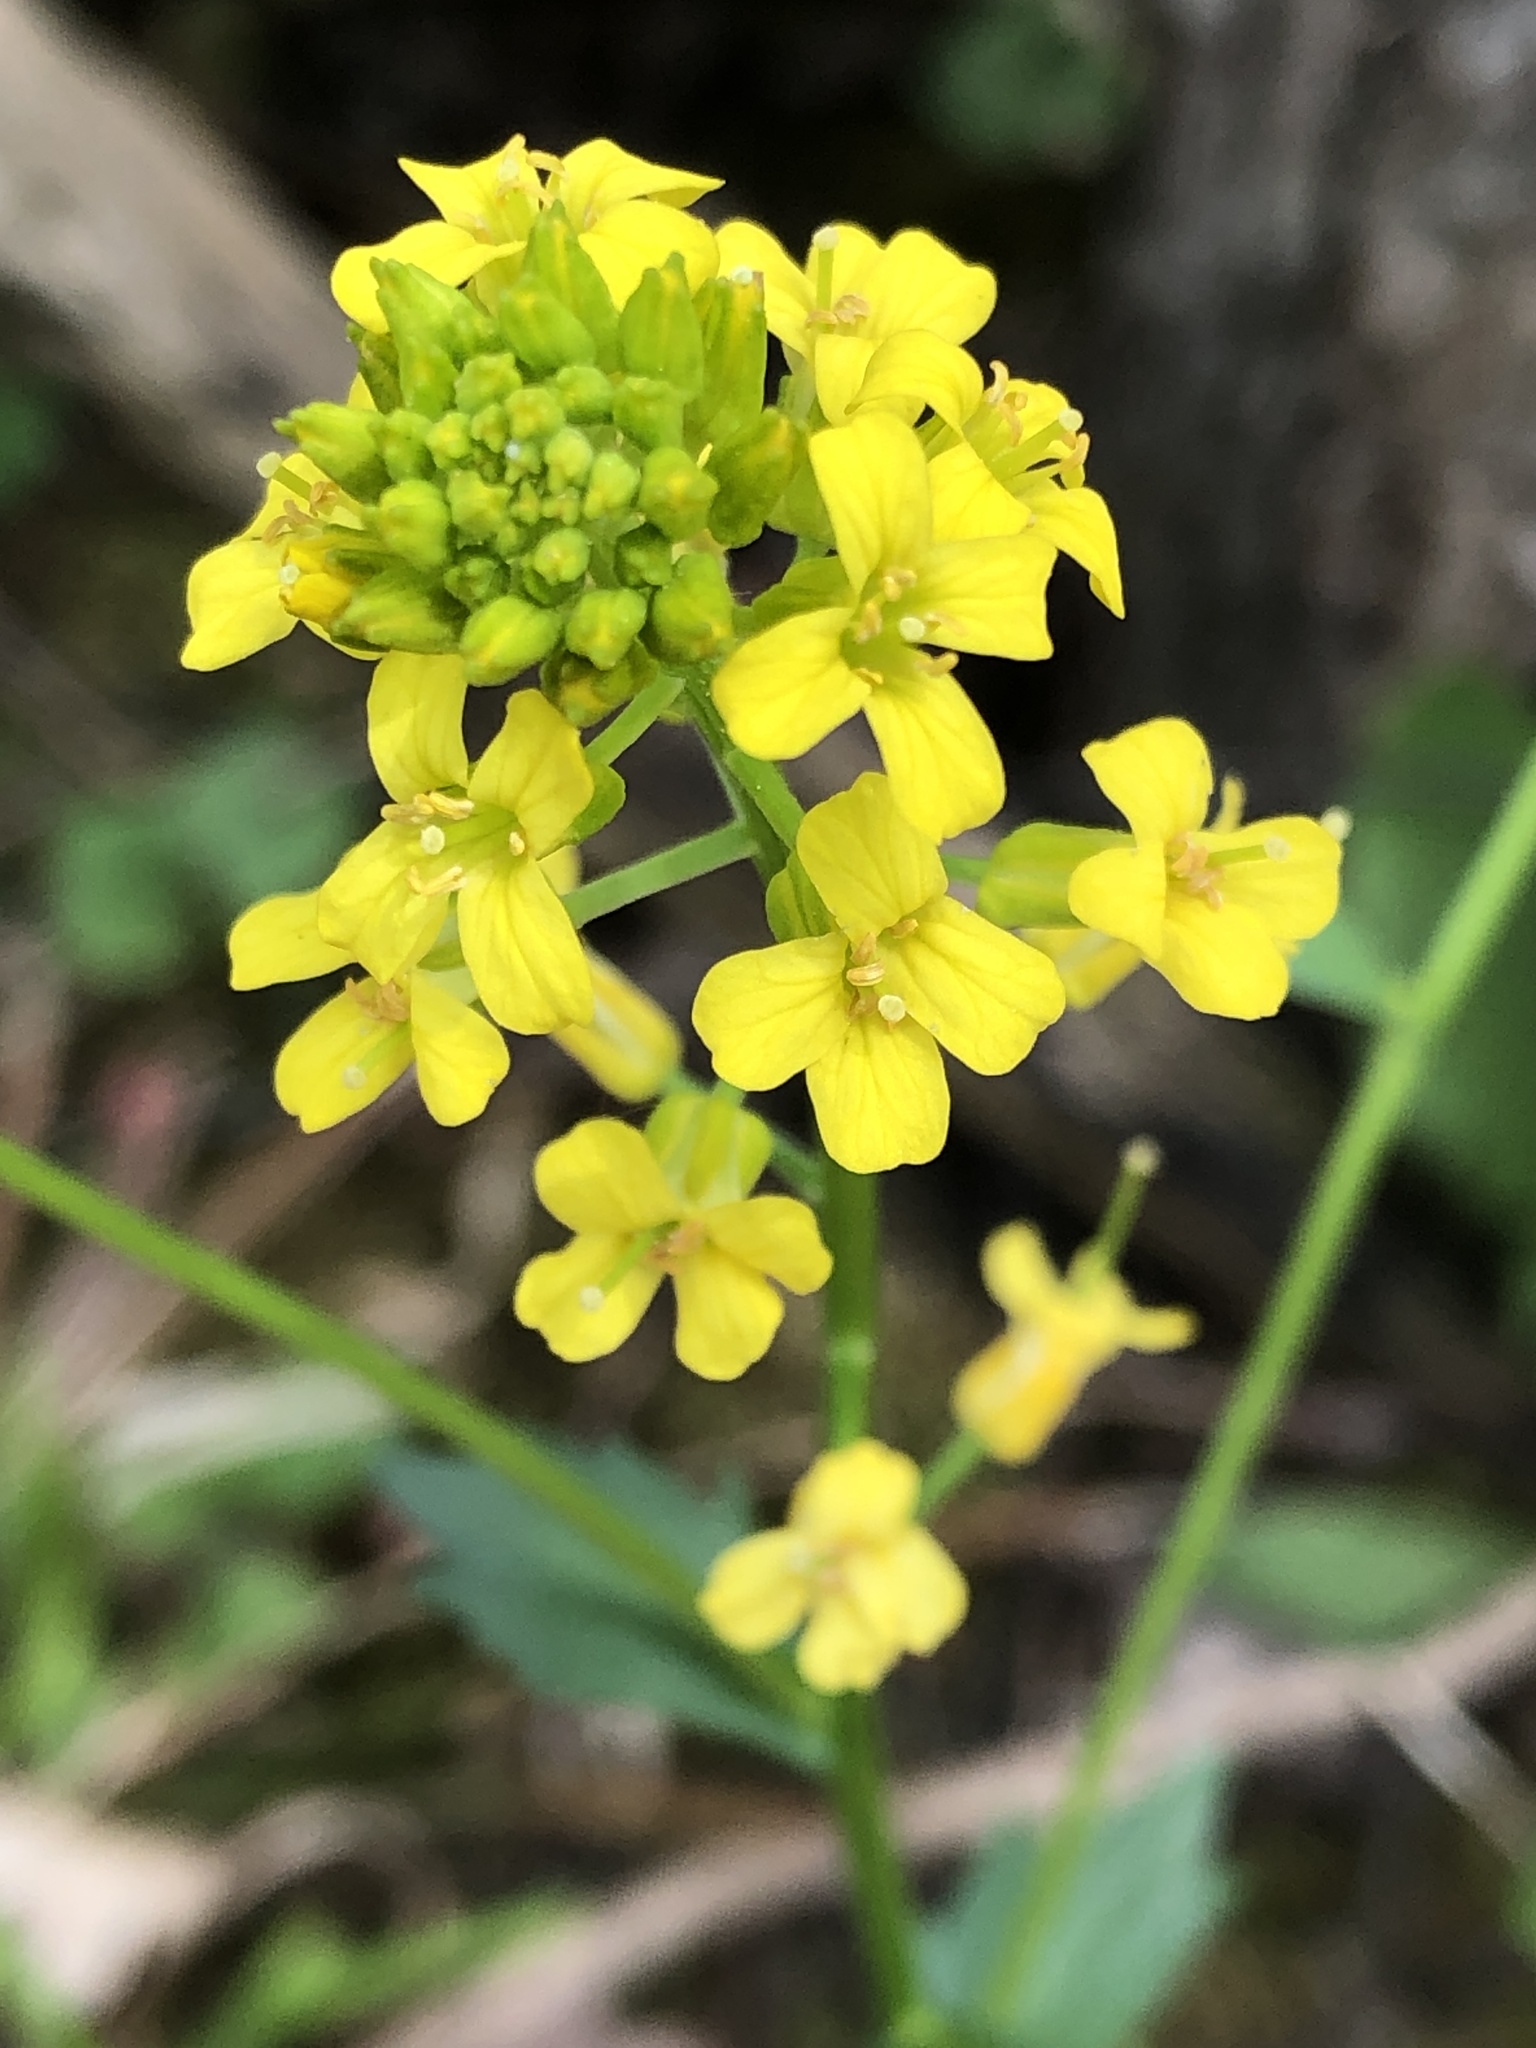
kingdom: Plantae
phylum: Tracheophyta
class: Magnoliopsida
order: Brassicales
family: Brassicaceae
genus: Barbarea
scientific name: Barbarea vulgaris
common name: Cressy-greens
